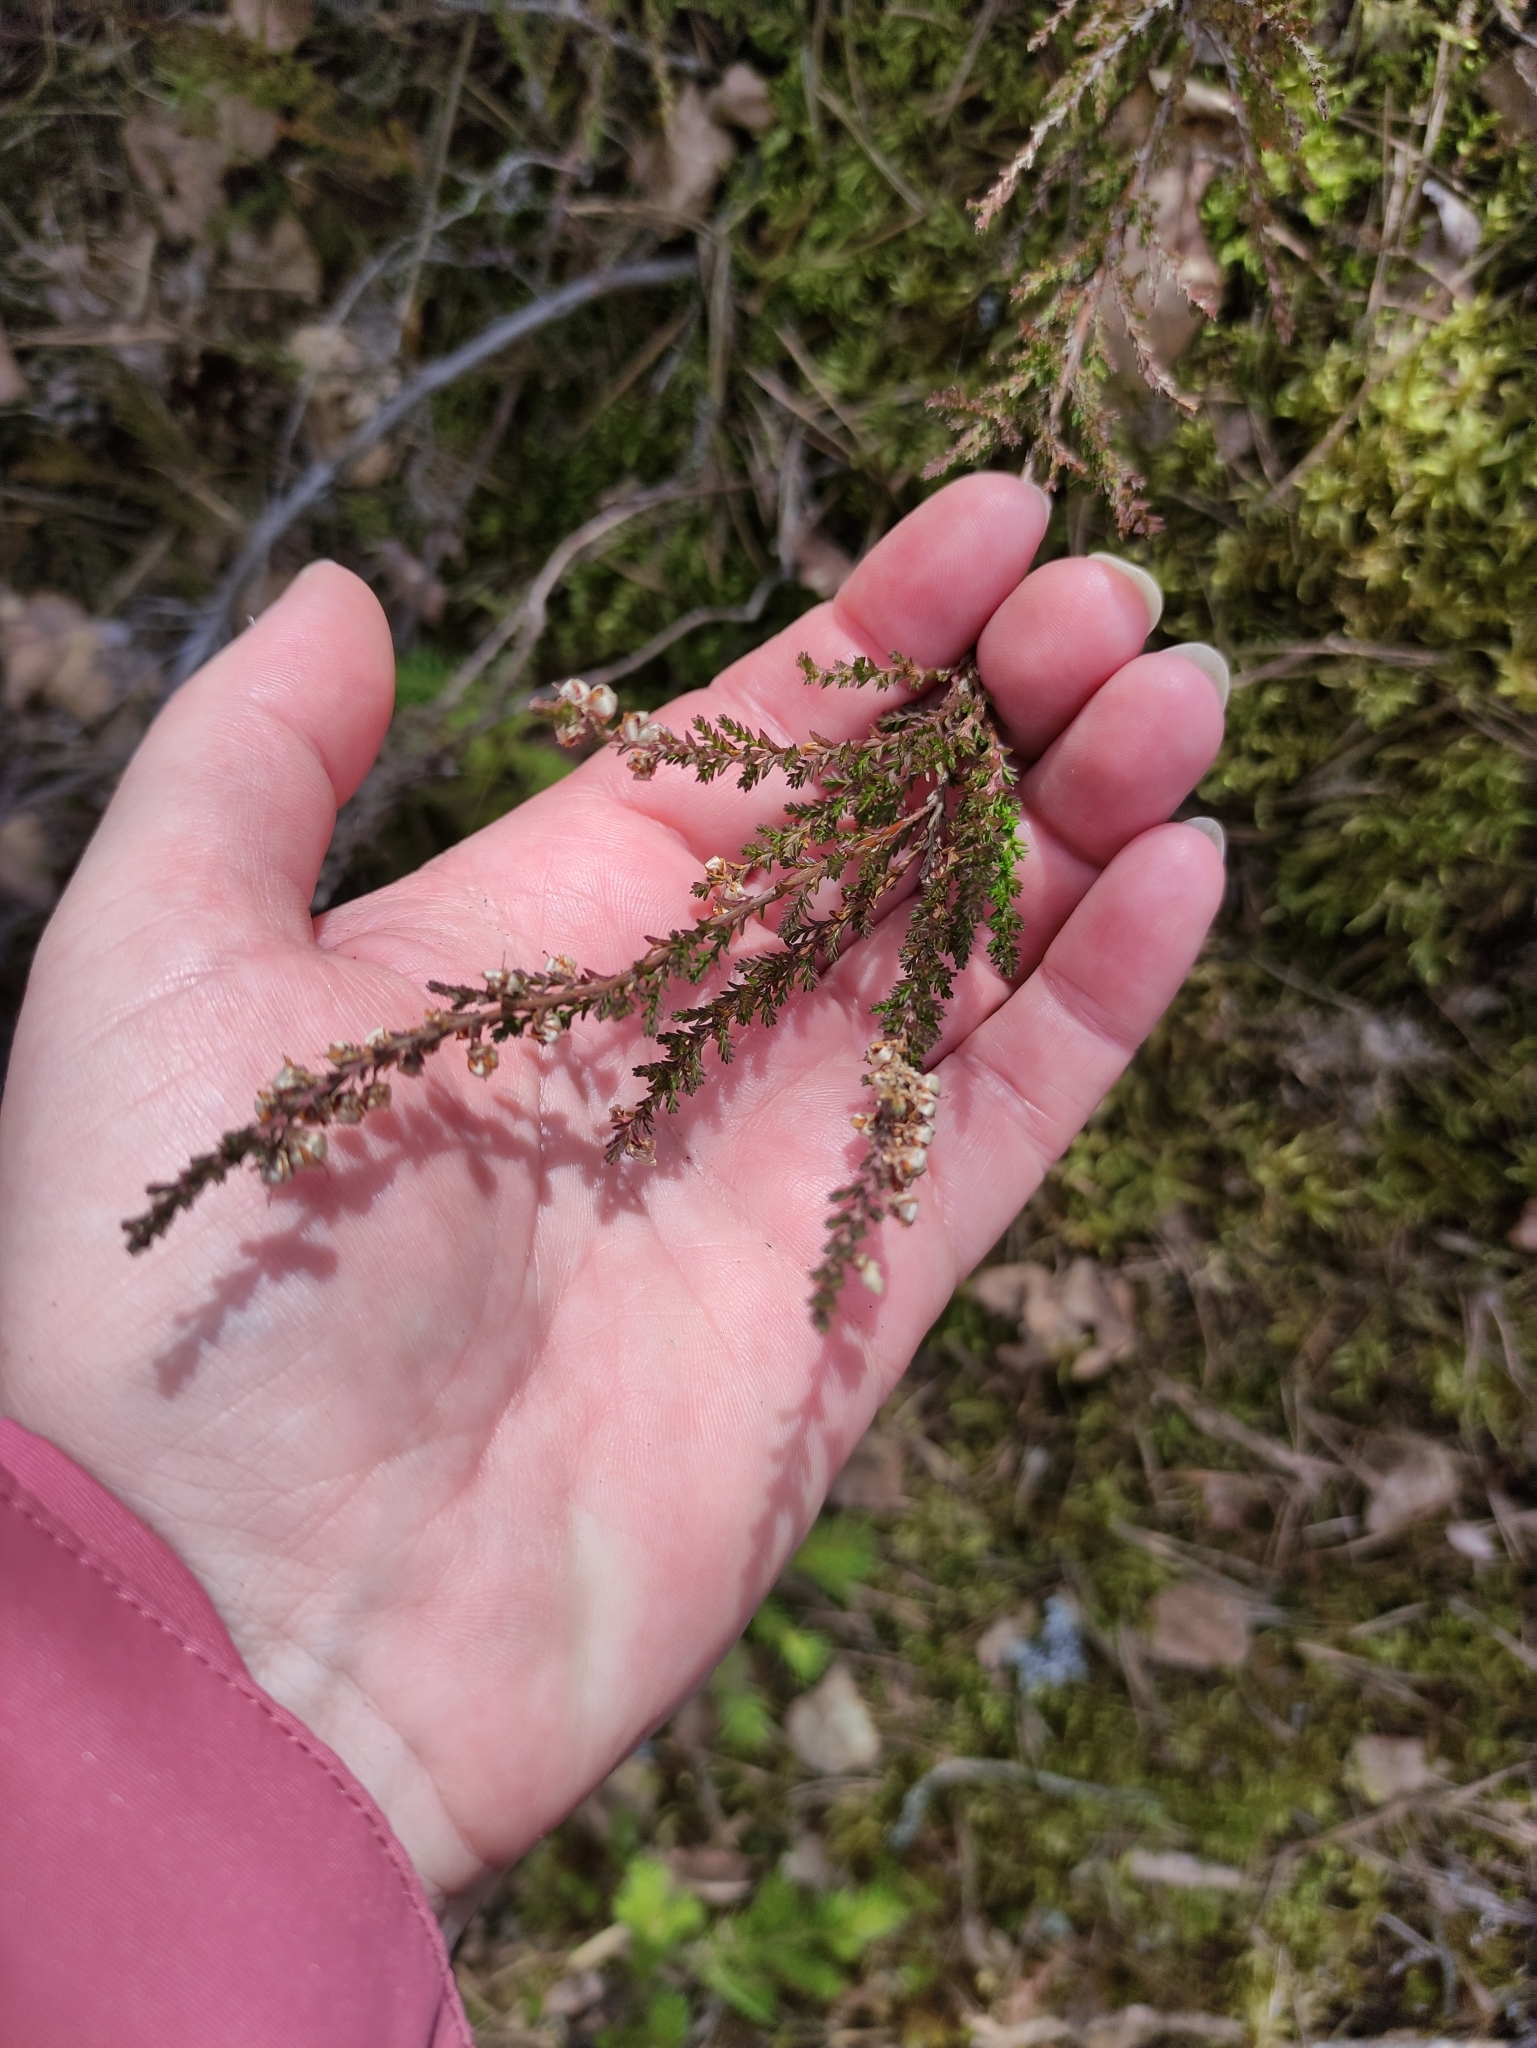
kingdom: Plantae
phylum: Tracheophyta
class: Magnoliopsida
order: Ericales
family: Ericaceae
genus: Calluna
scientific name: Calluna vulgaris
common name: Heather
